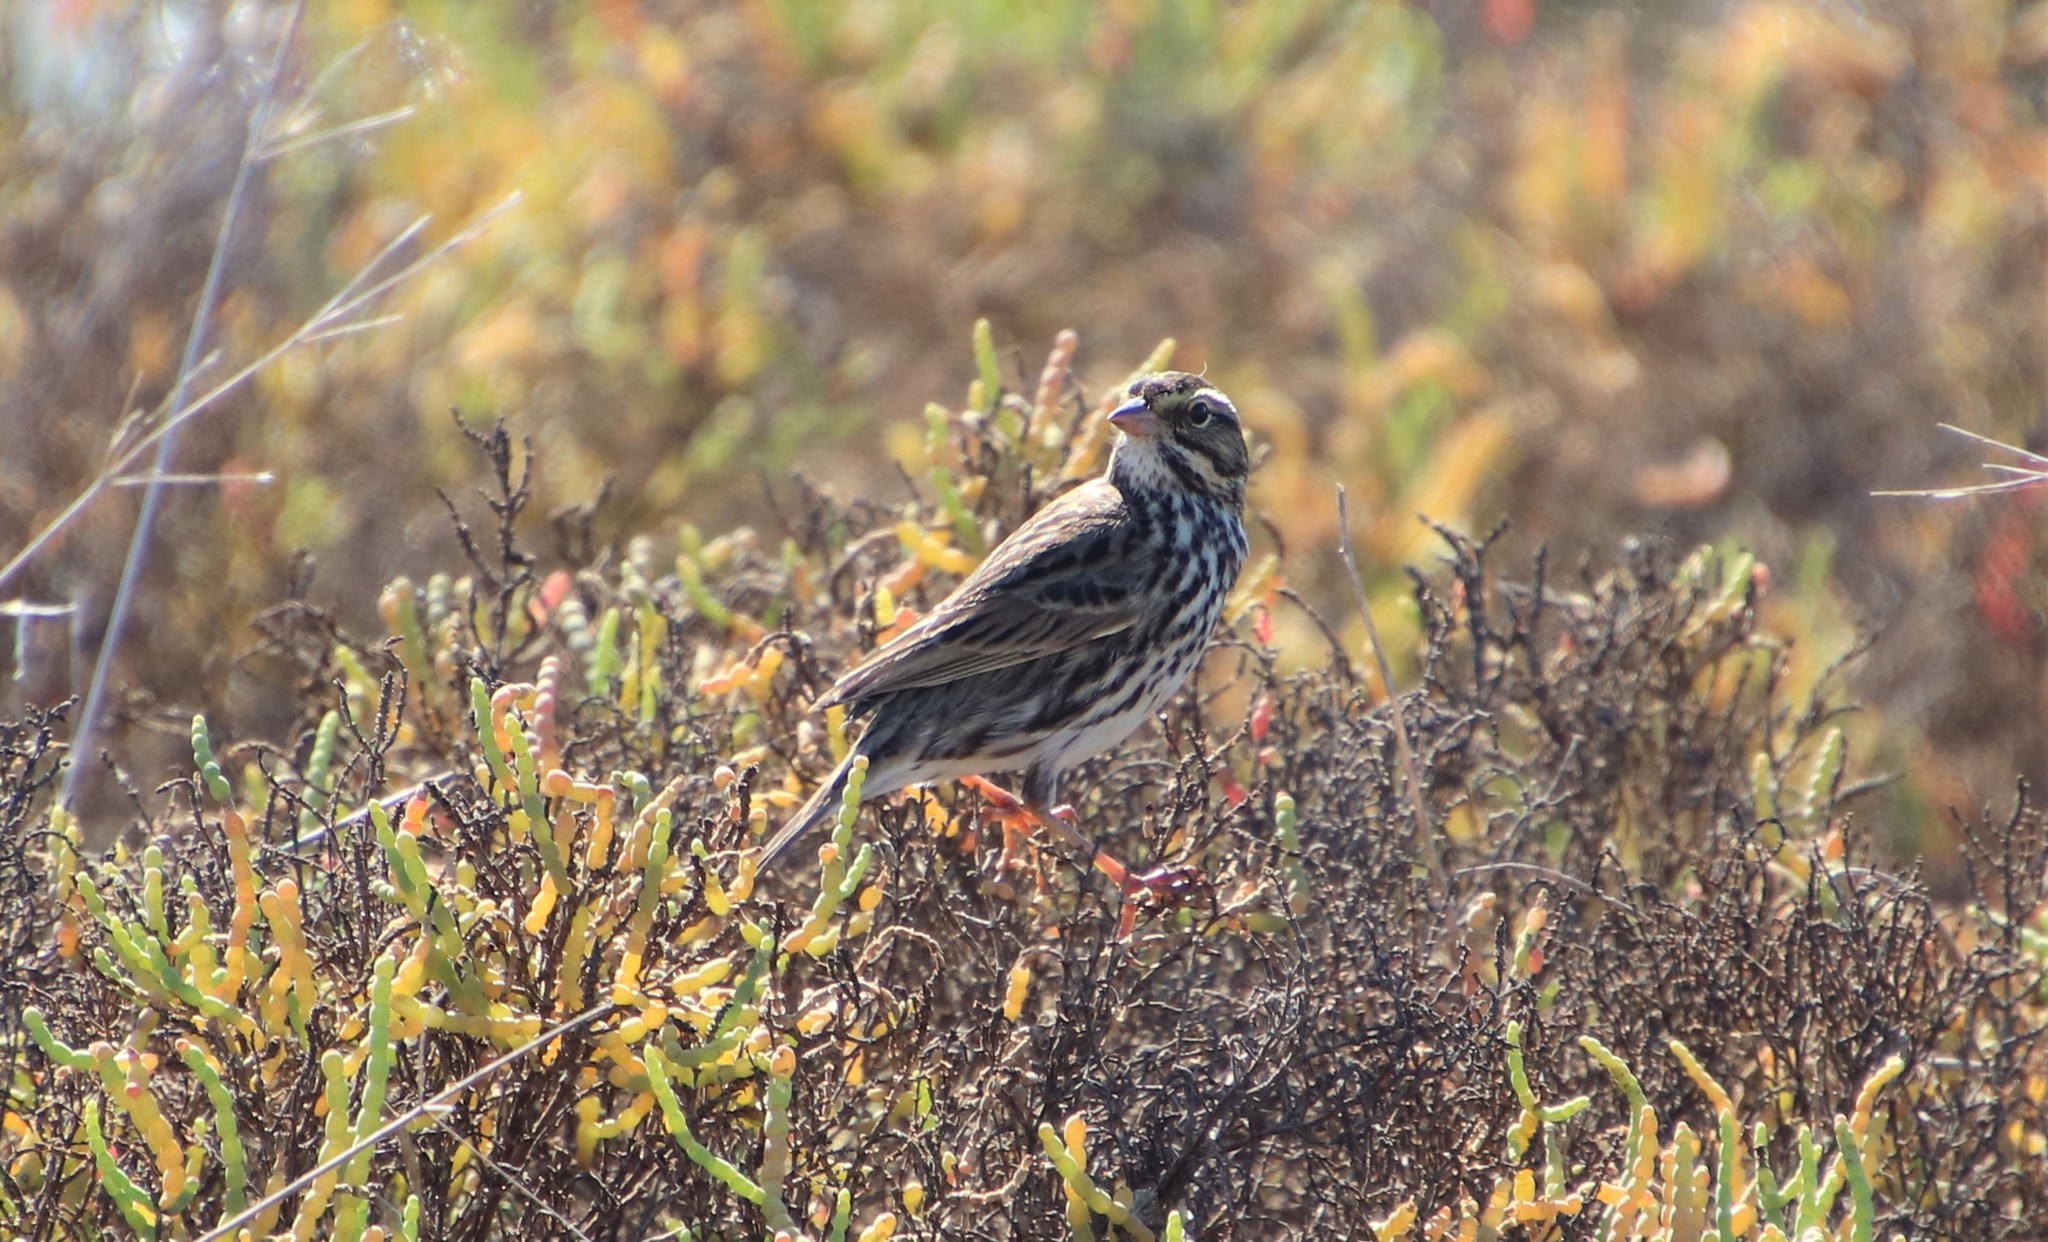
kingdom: Animalia
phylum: Chordata
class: Aves
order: Passeriformes
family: Passerellidae
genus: Passerculus
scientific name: Passerculus sandwichensis
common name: Savannah sparrow
